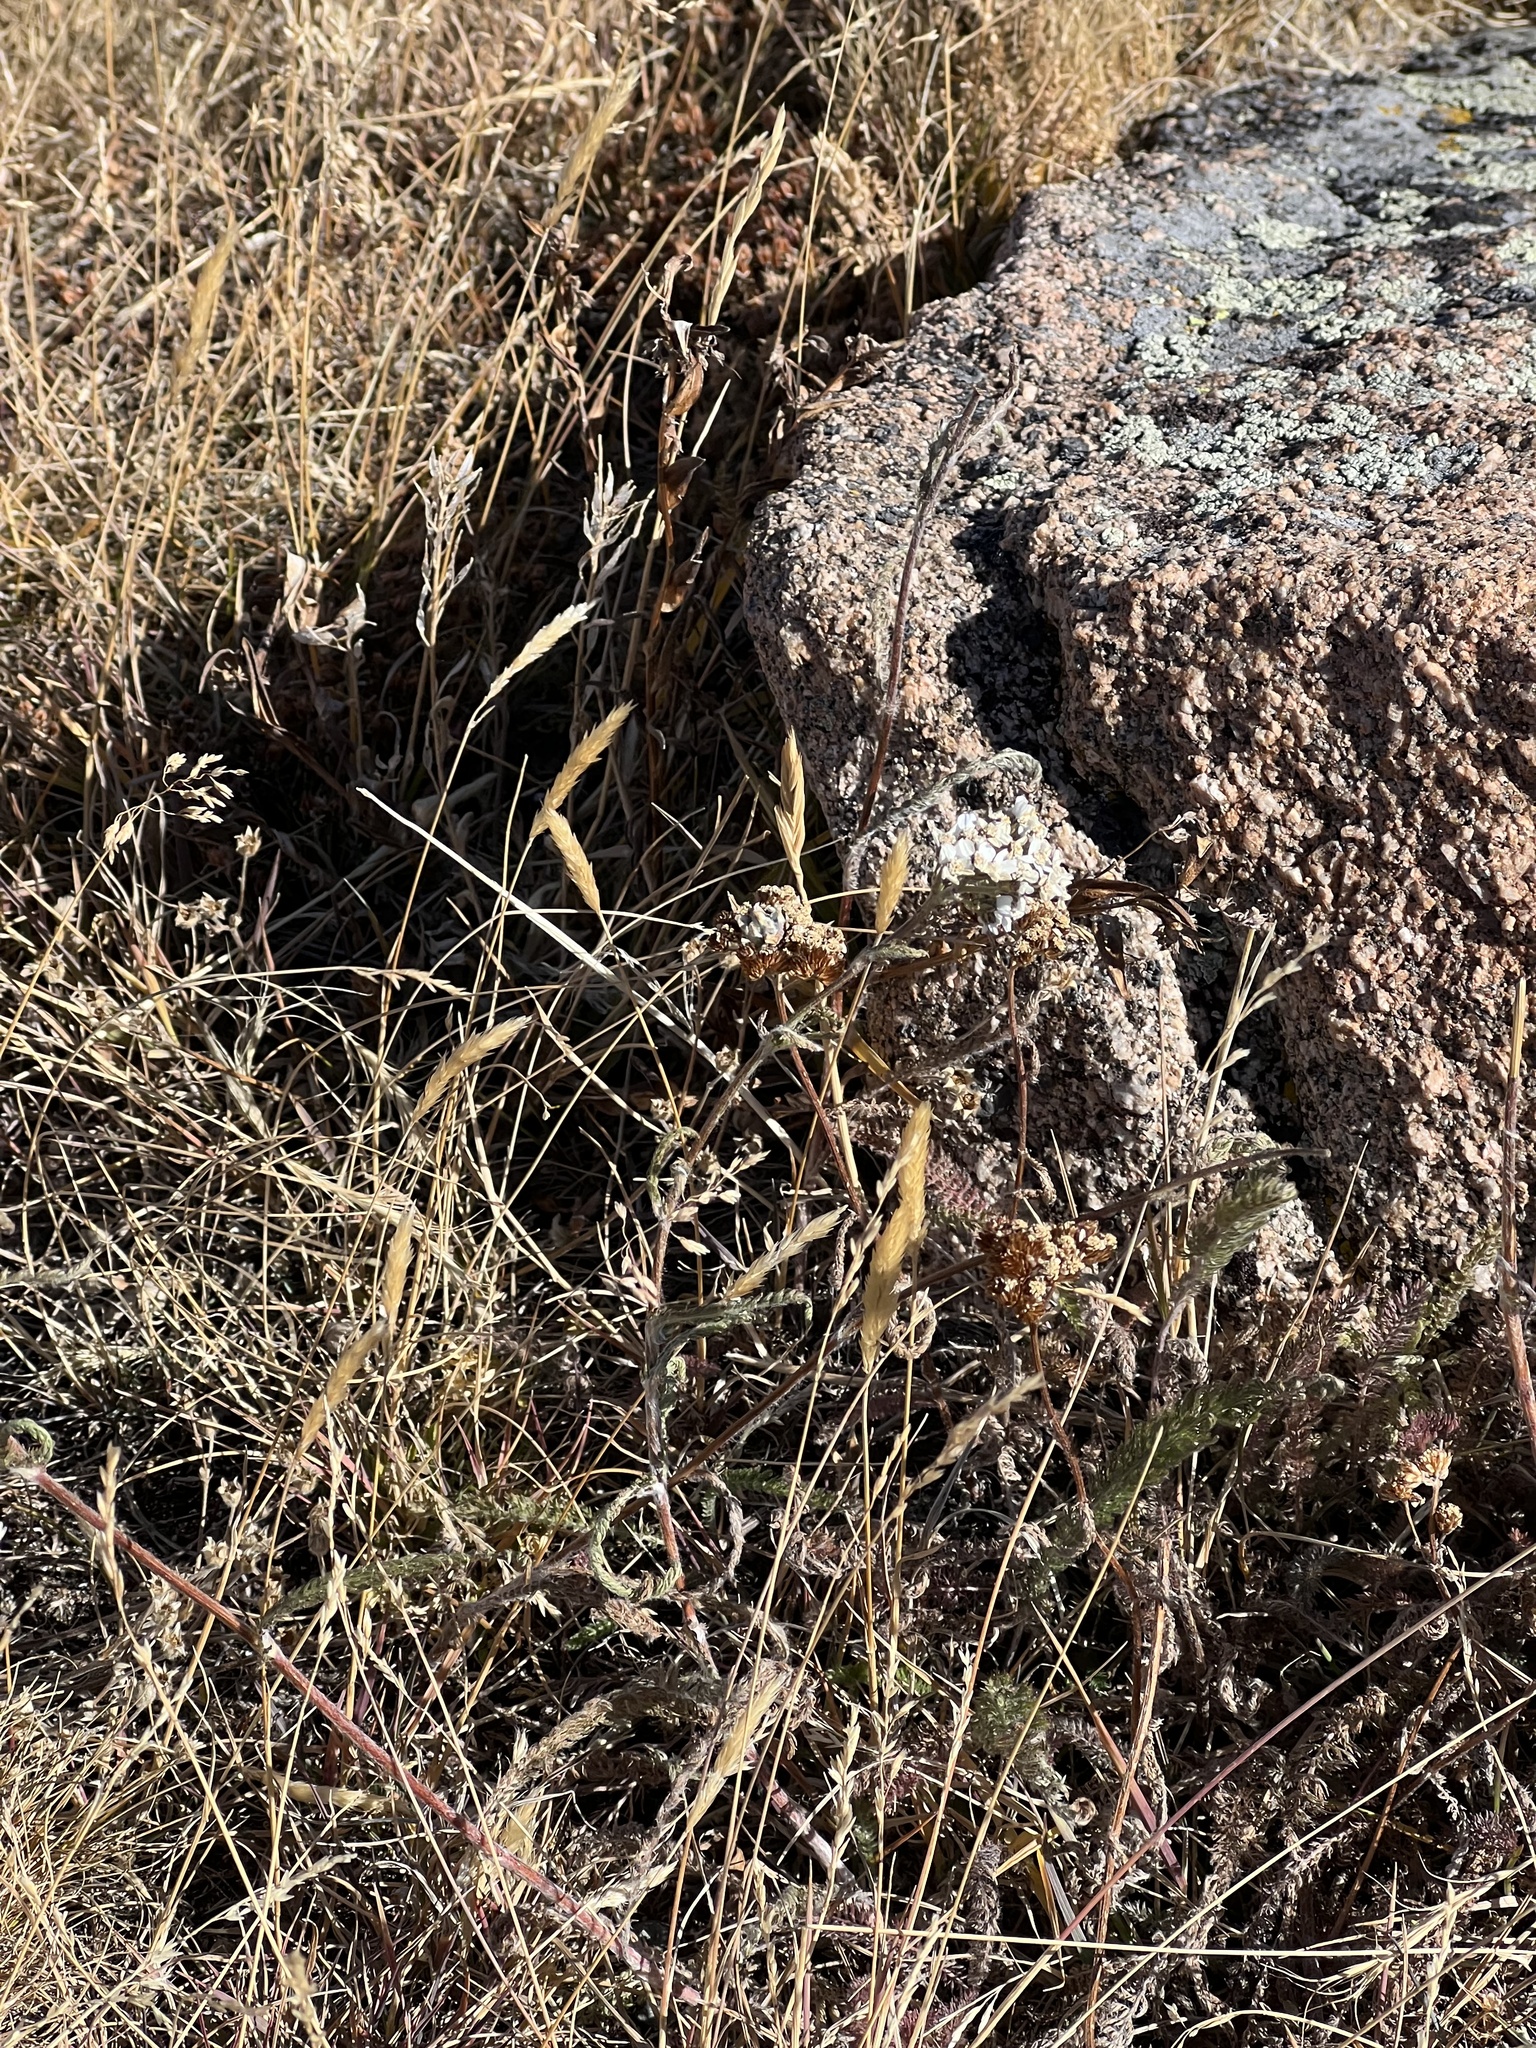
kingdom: Plantae
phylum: Tracheophyta
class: Magnoliopsida
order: Asterales
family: Asteraceae
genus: Achillea
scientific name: Achillea millefolium
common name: Yarrow
